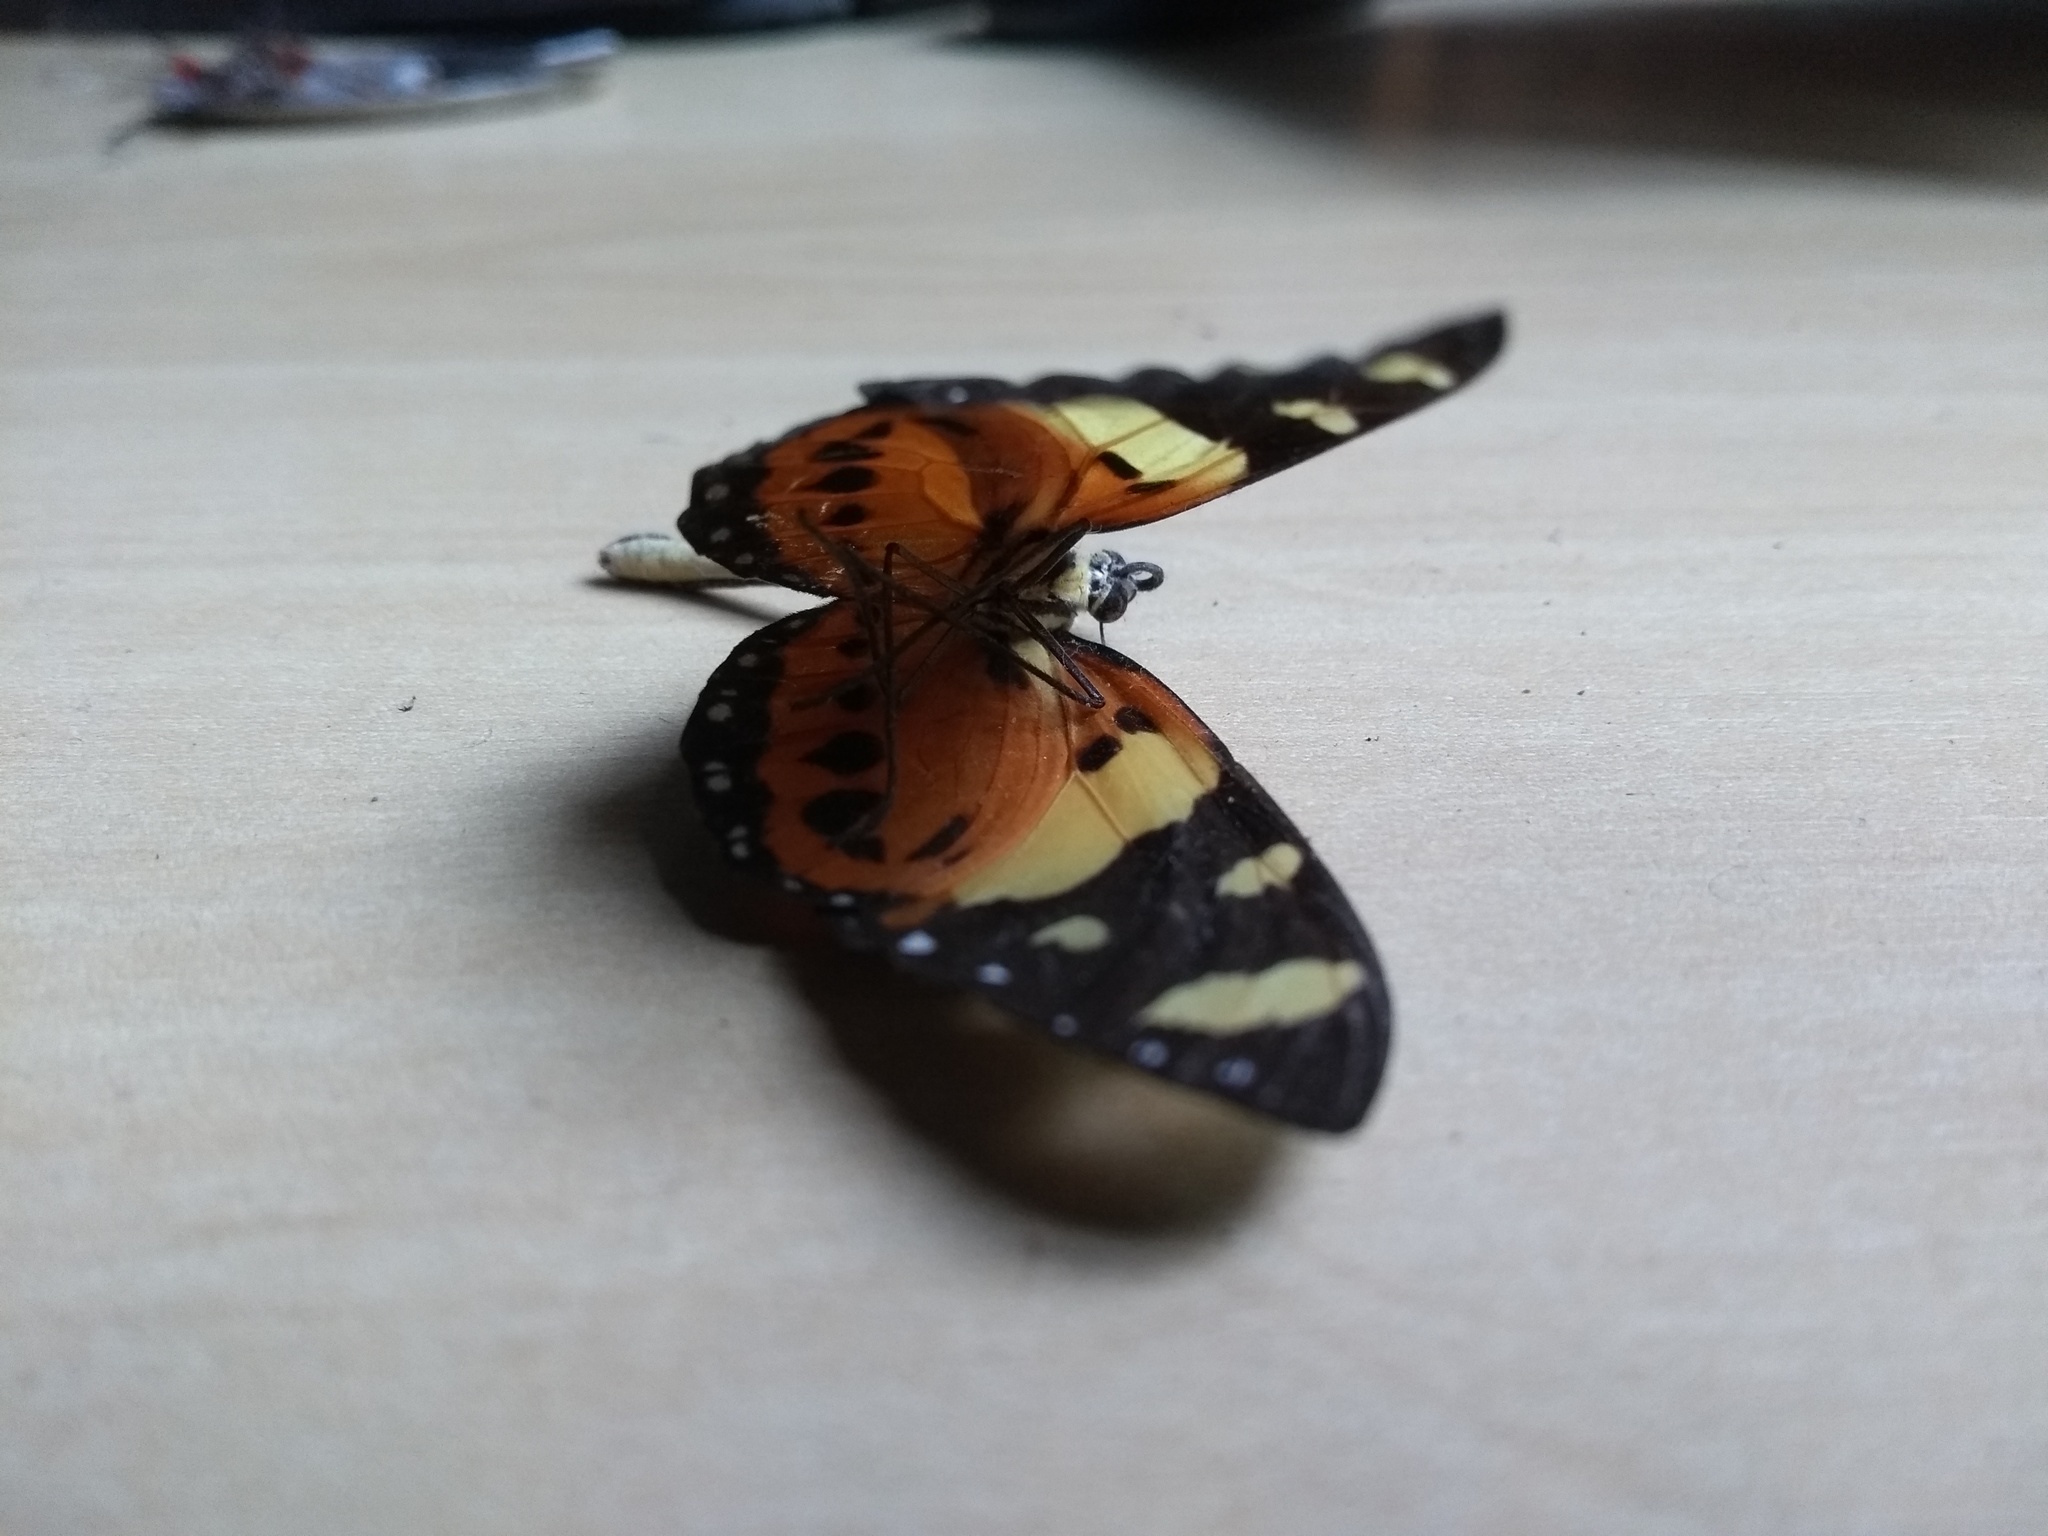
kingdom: Animalia
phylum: Arthropoda
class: Insecta
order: Lepidoptera
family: Nymphalidae
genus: Melinaea
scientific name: Melinaea ludovica
